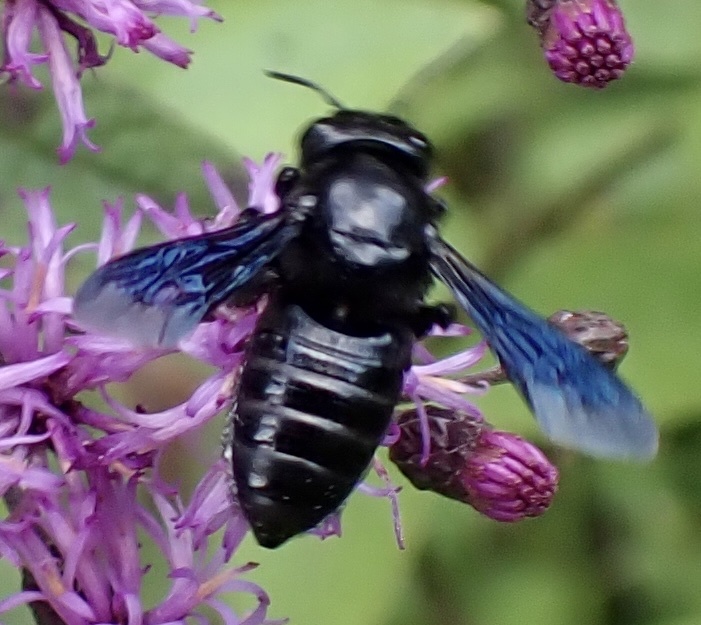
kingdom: Animalia
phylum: Arthropoda
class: Insecta
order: Hymenoptera
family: Megachilidae
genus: Megachile
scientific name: Megachile xylocopoides
